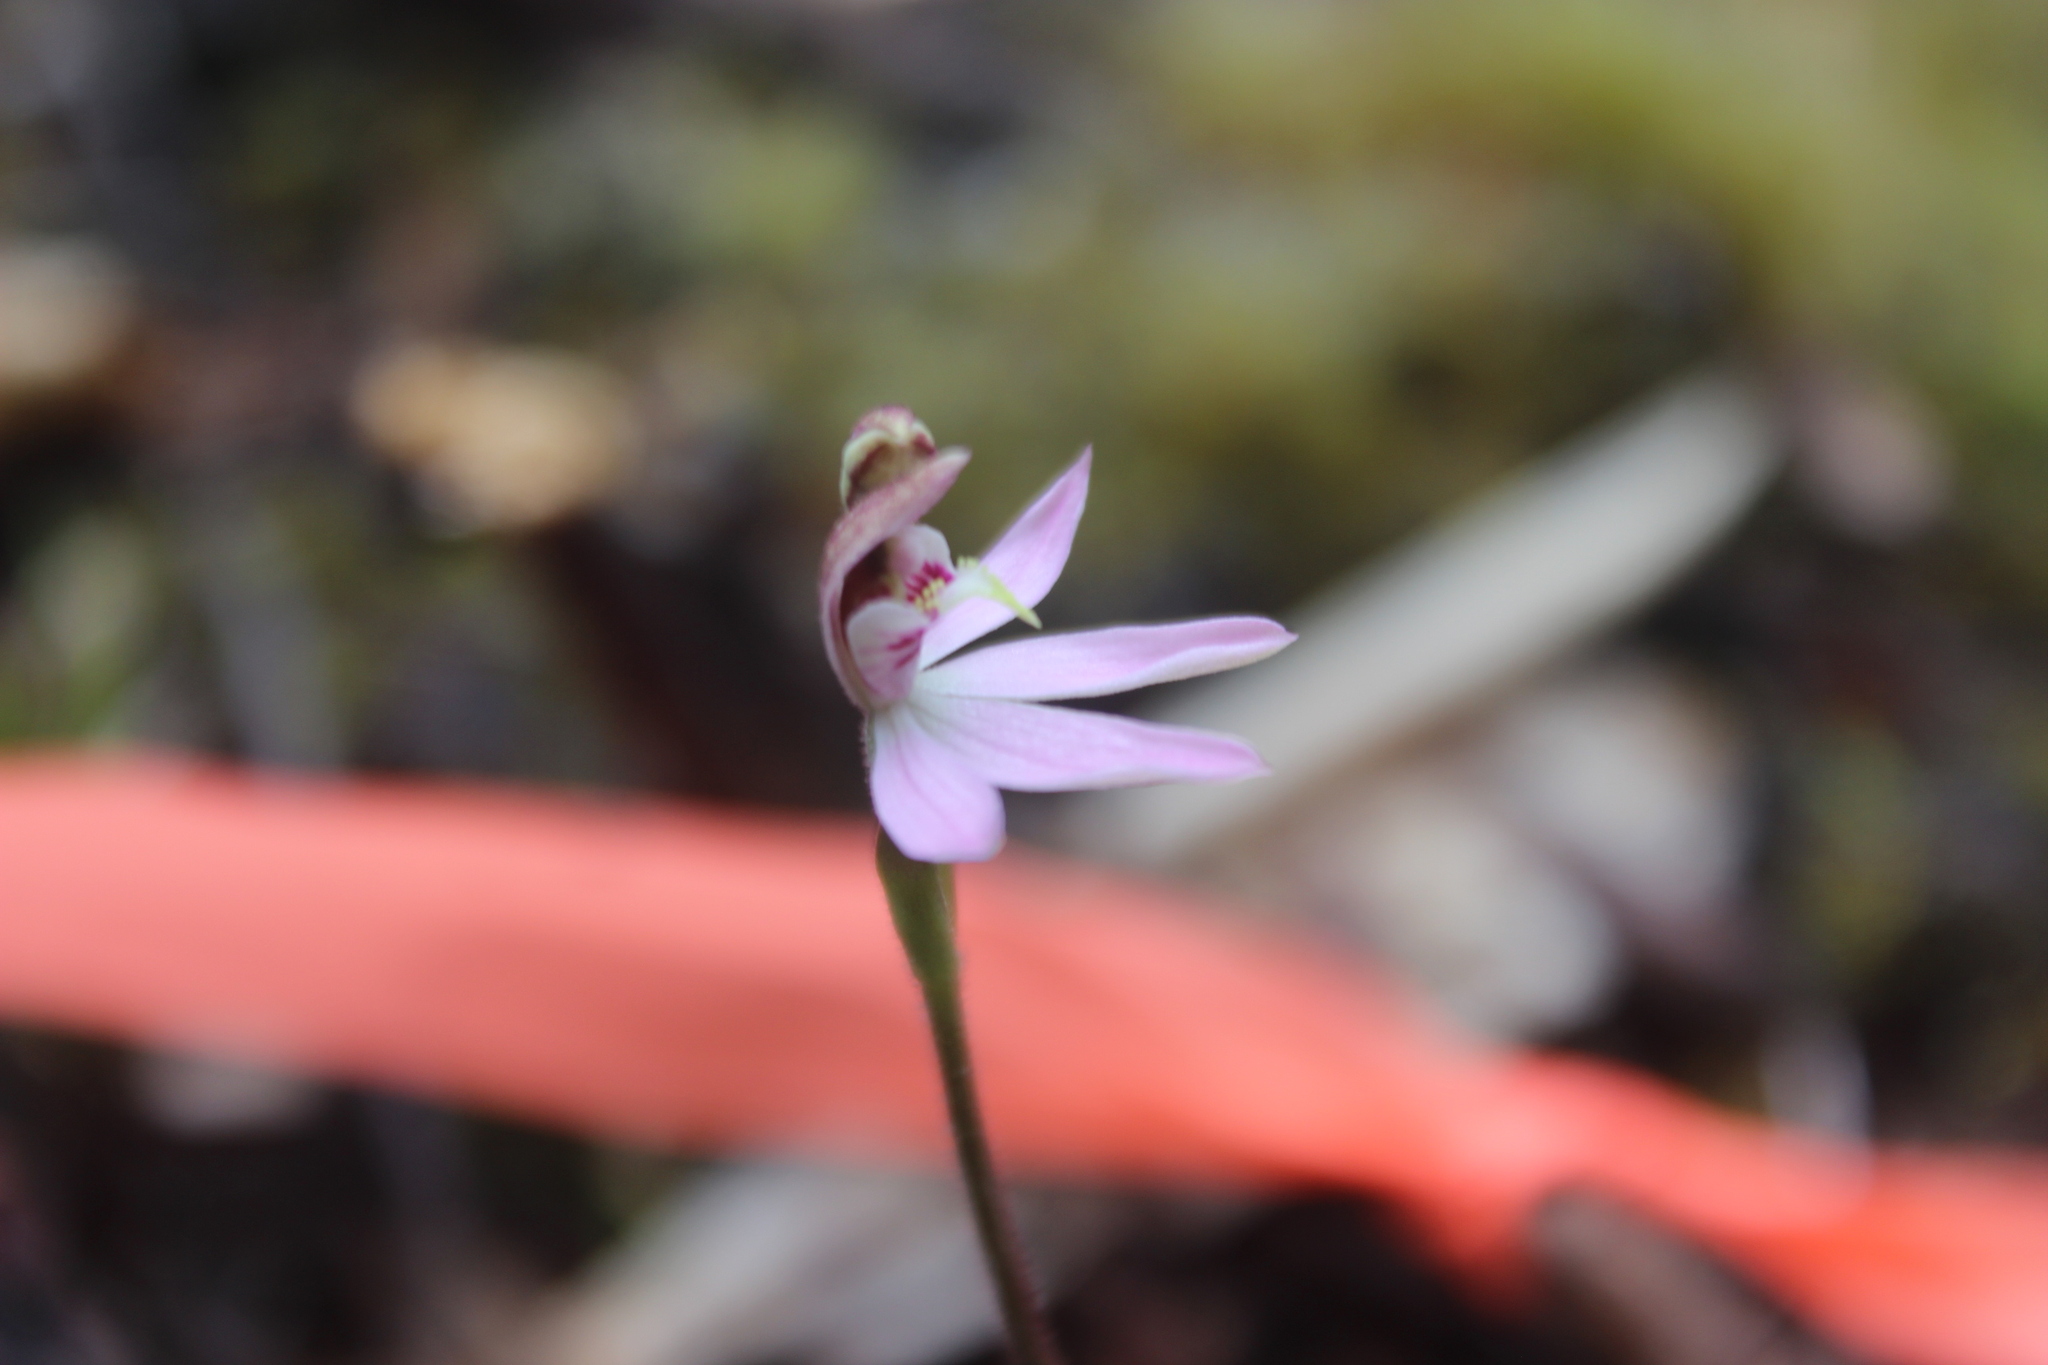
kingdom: Plantae
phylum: Tracheophyta
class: Liliopsida
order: Asparagales
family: Orchidaceae
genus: Caladenia
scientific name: Caladenia variegata
